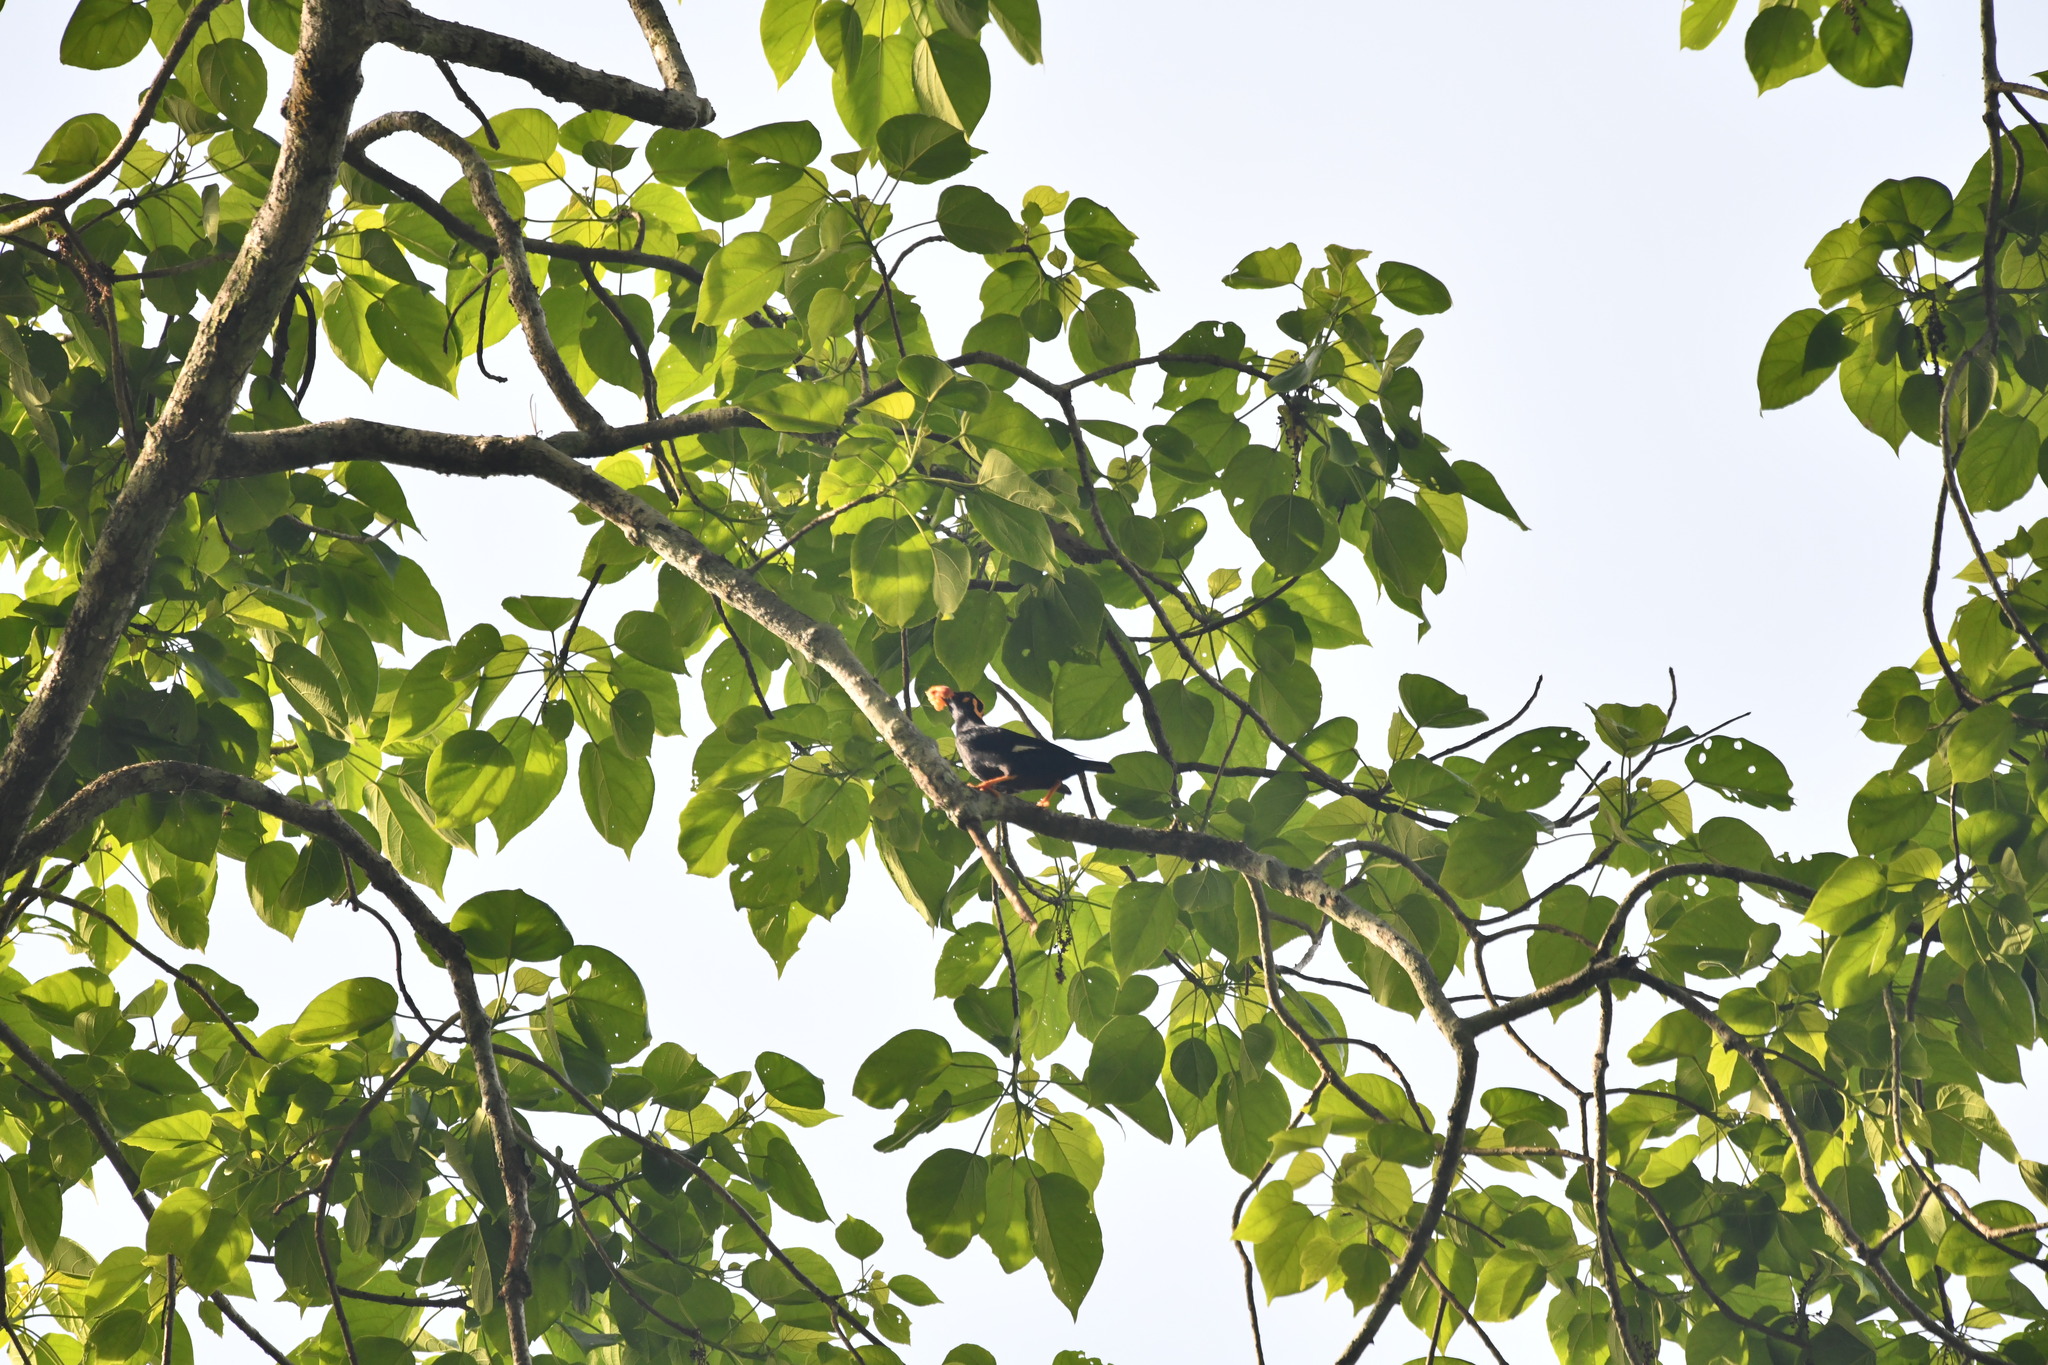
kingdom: Animalia
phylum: Chordata
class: Aves
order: Passeriformes
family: Sturnidae
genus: Gracula
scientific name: Gracula indica
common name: Southern hill myna
